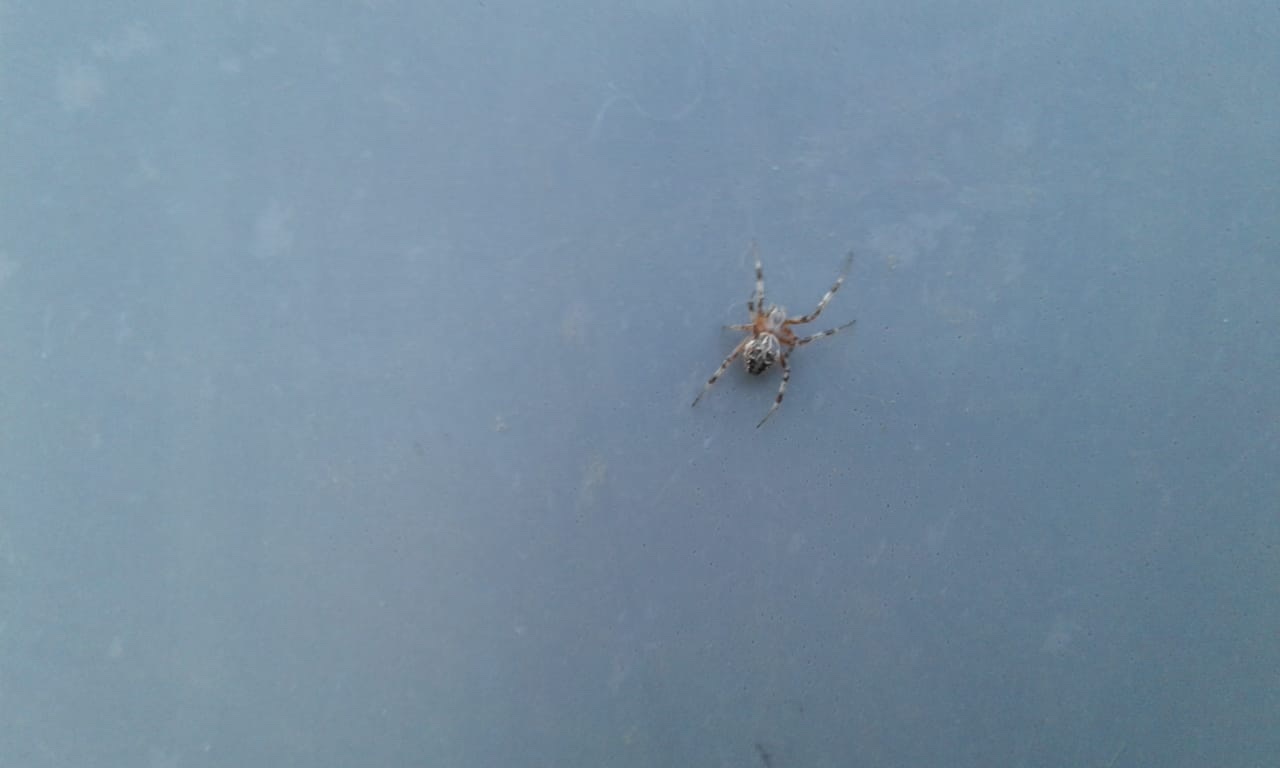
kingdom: Animalia
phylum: Arthropoda
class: Arachnida
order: Araneae
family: Araneidae
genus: Metepeira
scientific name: Metepeira
